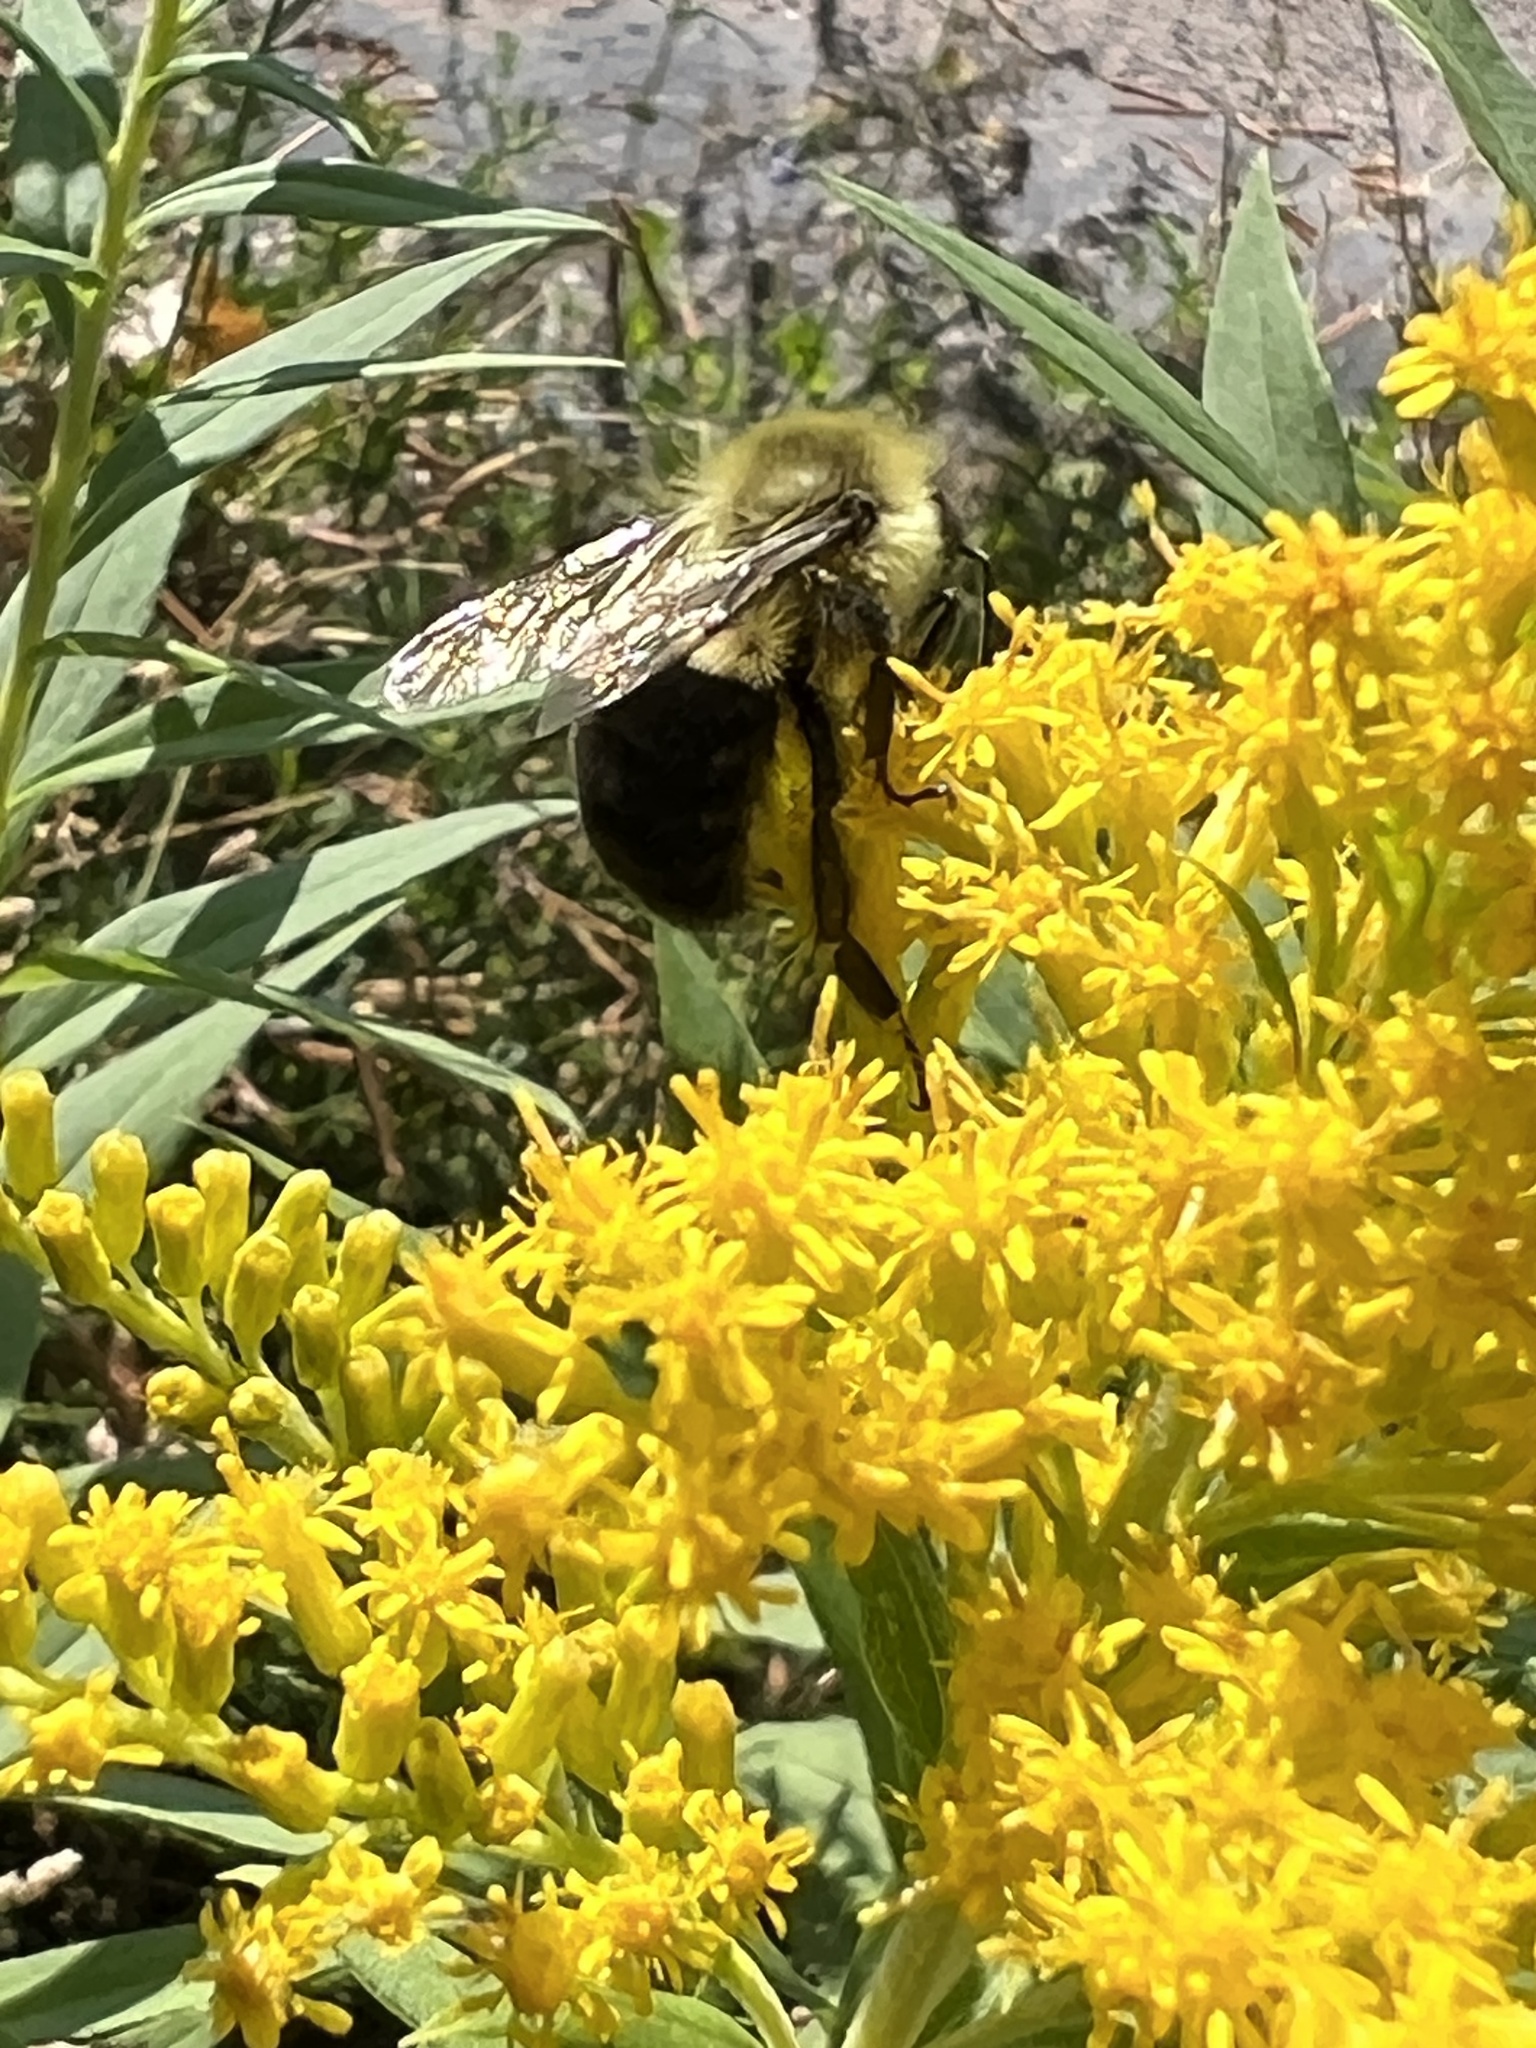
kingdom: Animalia
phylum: Arthropoda
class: Insecta
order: Hymenoptera
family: Apidae
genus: Bombus
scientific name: Bombus impatiens
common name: Common eastern bumble bee
